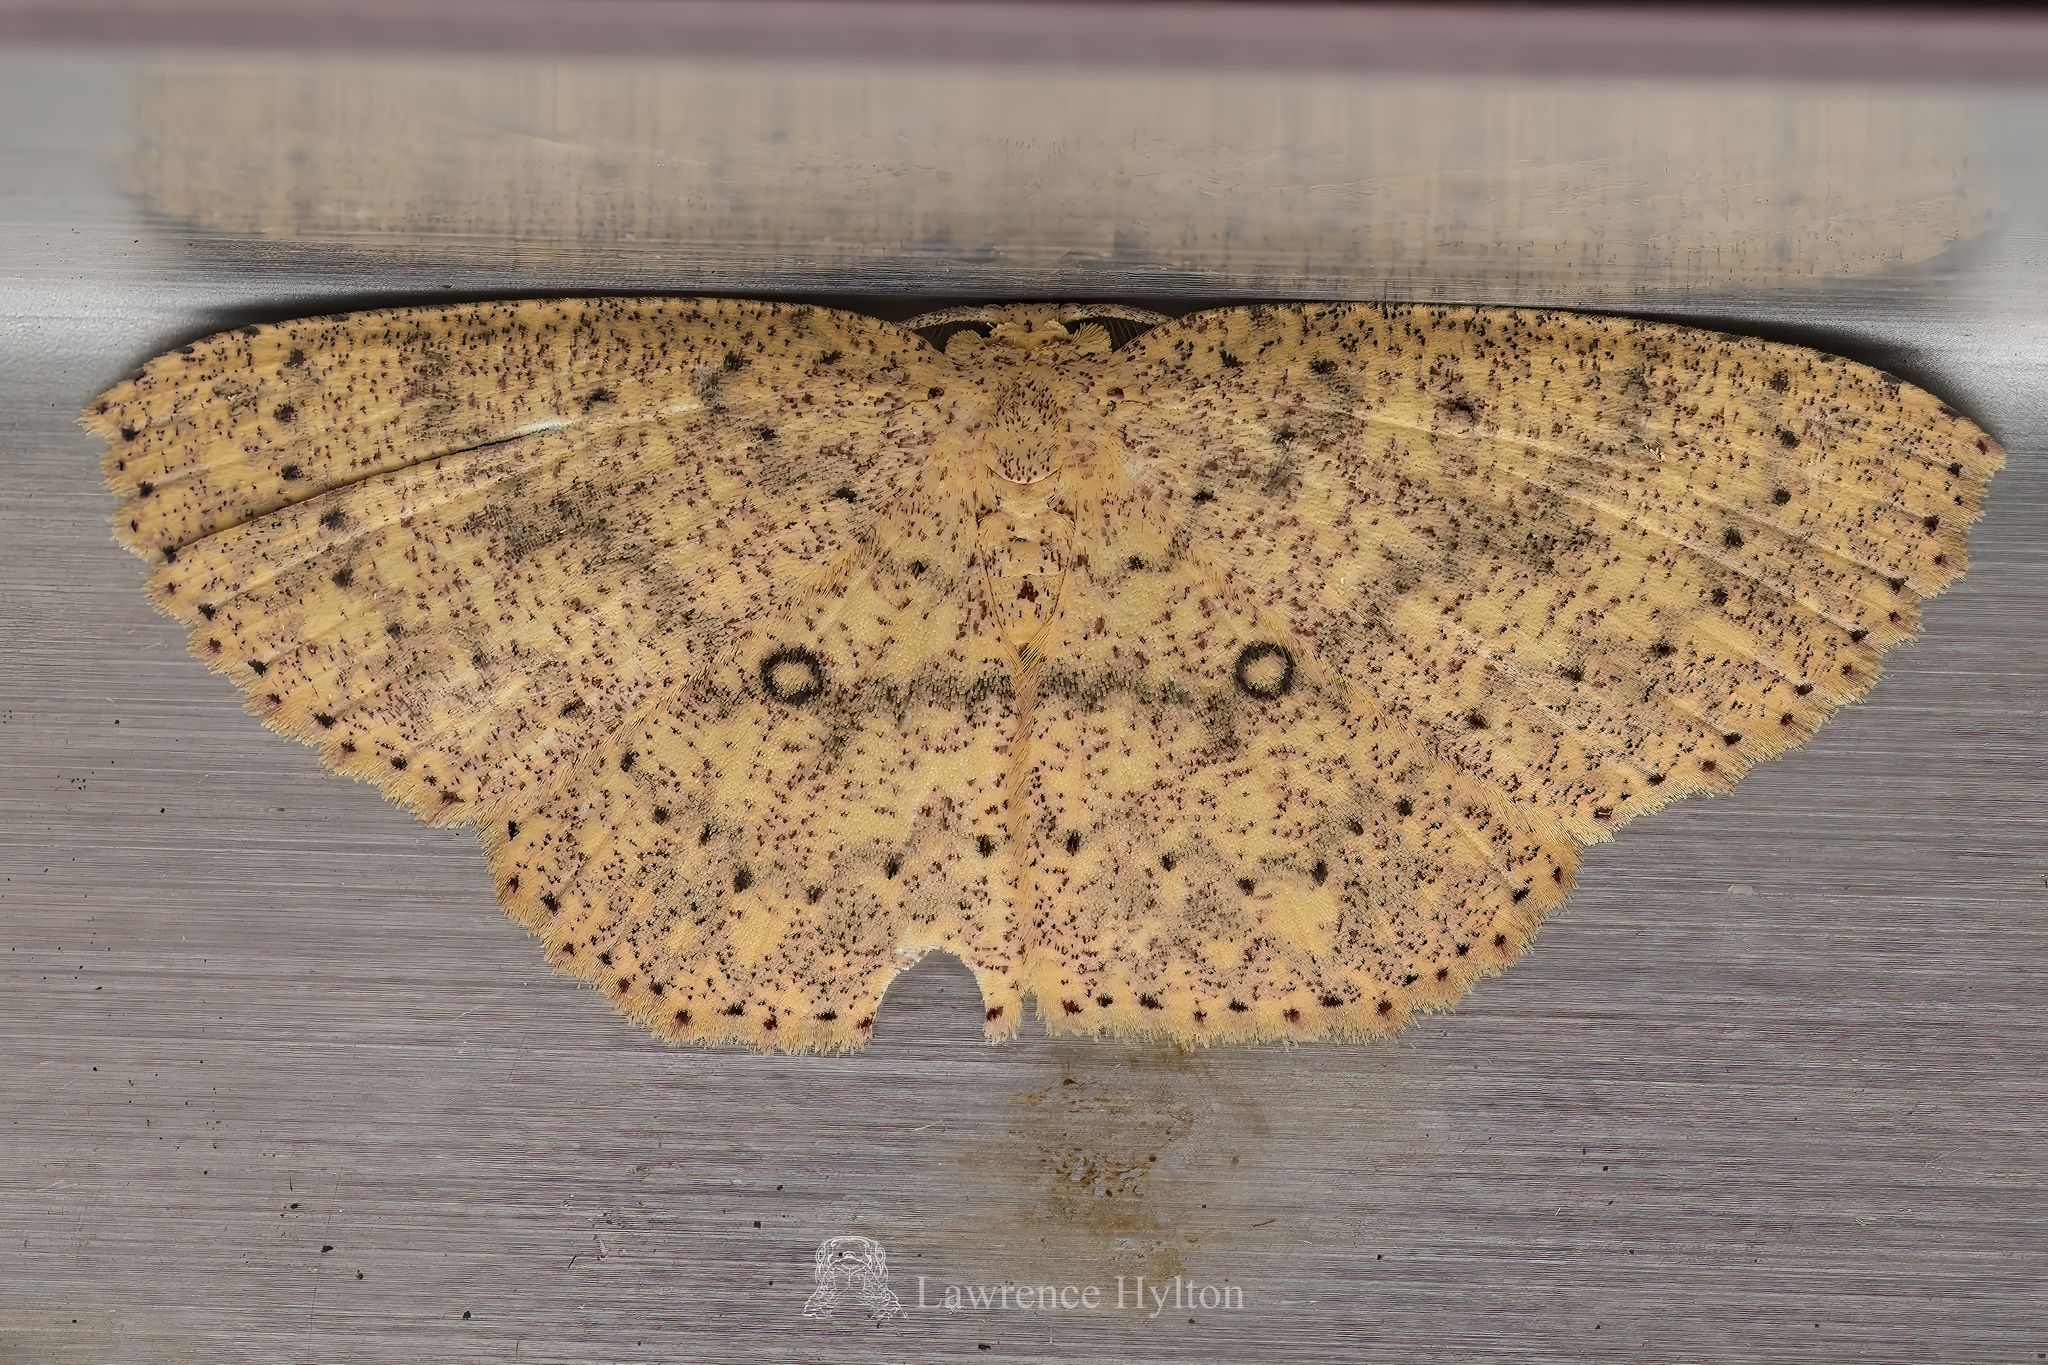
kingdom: Animalia
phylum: Arthropoda
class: Insecta
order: Lepidoptera
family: Geometridae
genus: Perixera
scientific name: Perixera decretarioides
